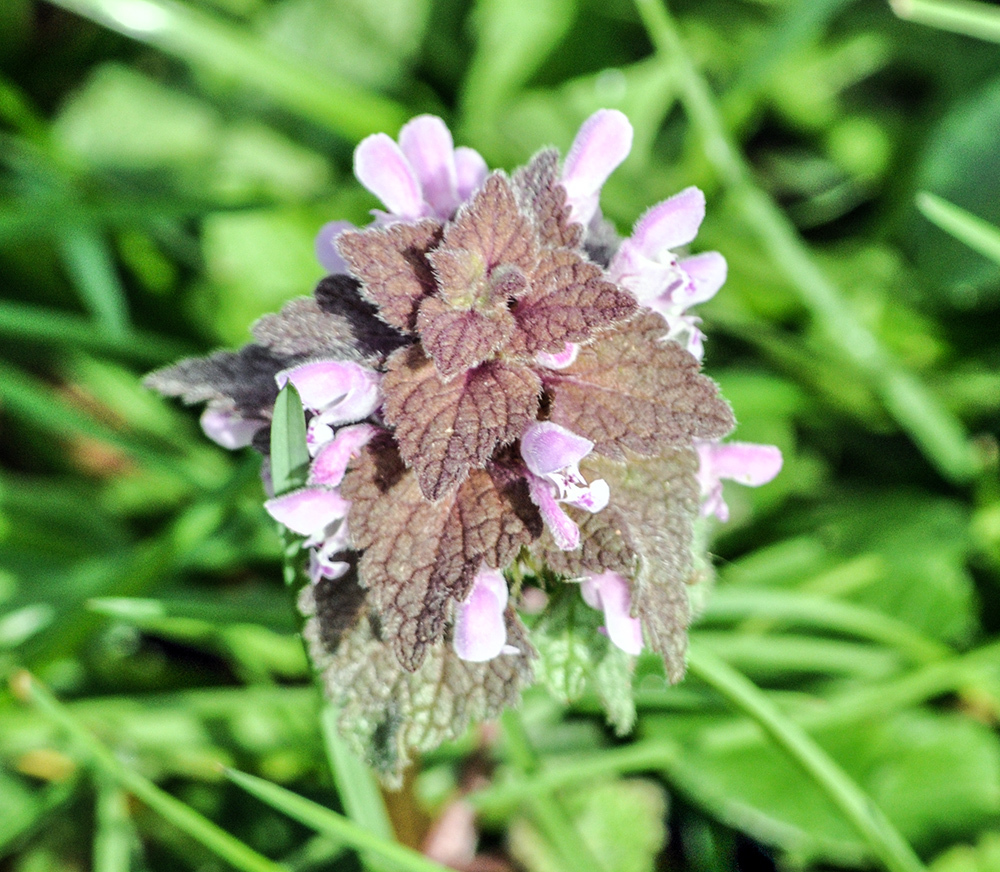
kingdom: Plantae
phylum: Tracheophyta
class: Magnoliopsida
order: Lamiales
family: Lamiaceae
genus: Lamium
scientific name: Lamium purpureum
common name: Red dead-nettle
